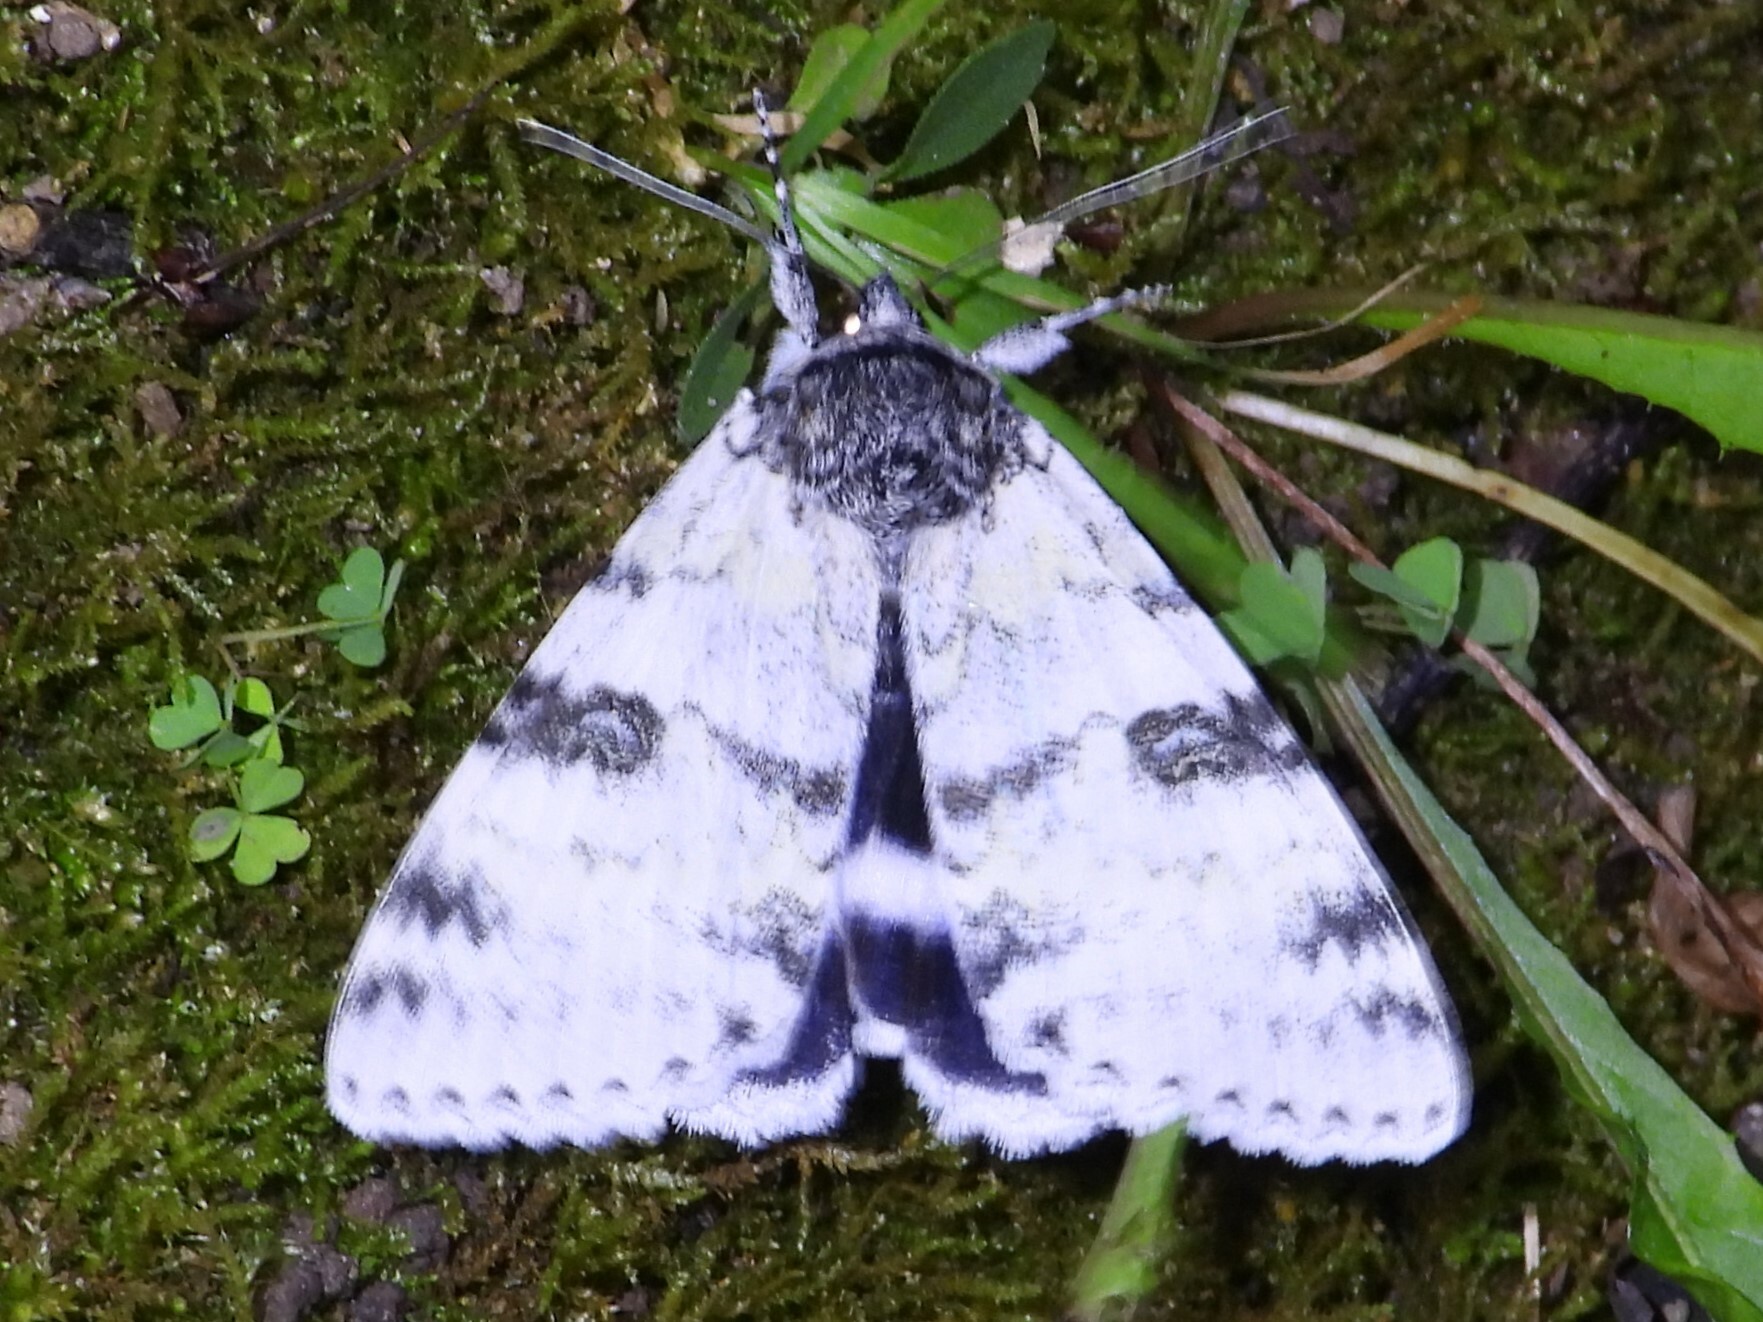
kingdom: Animalia
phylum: Arthropoda
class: Insecta
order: Lepidoptera
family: Erebidae
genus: Catocala
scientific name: Catocala relicta
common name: White underwing
